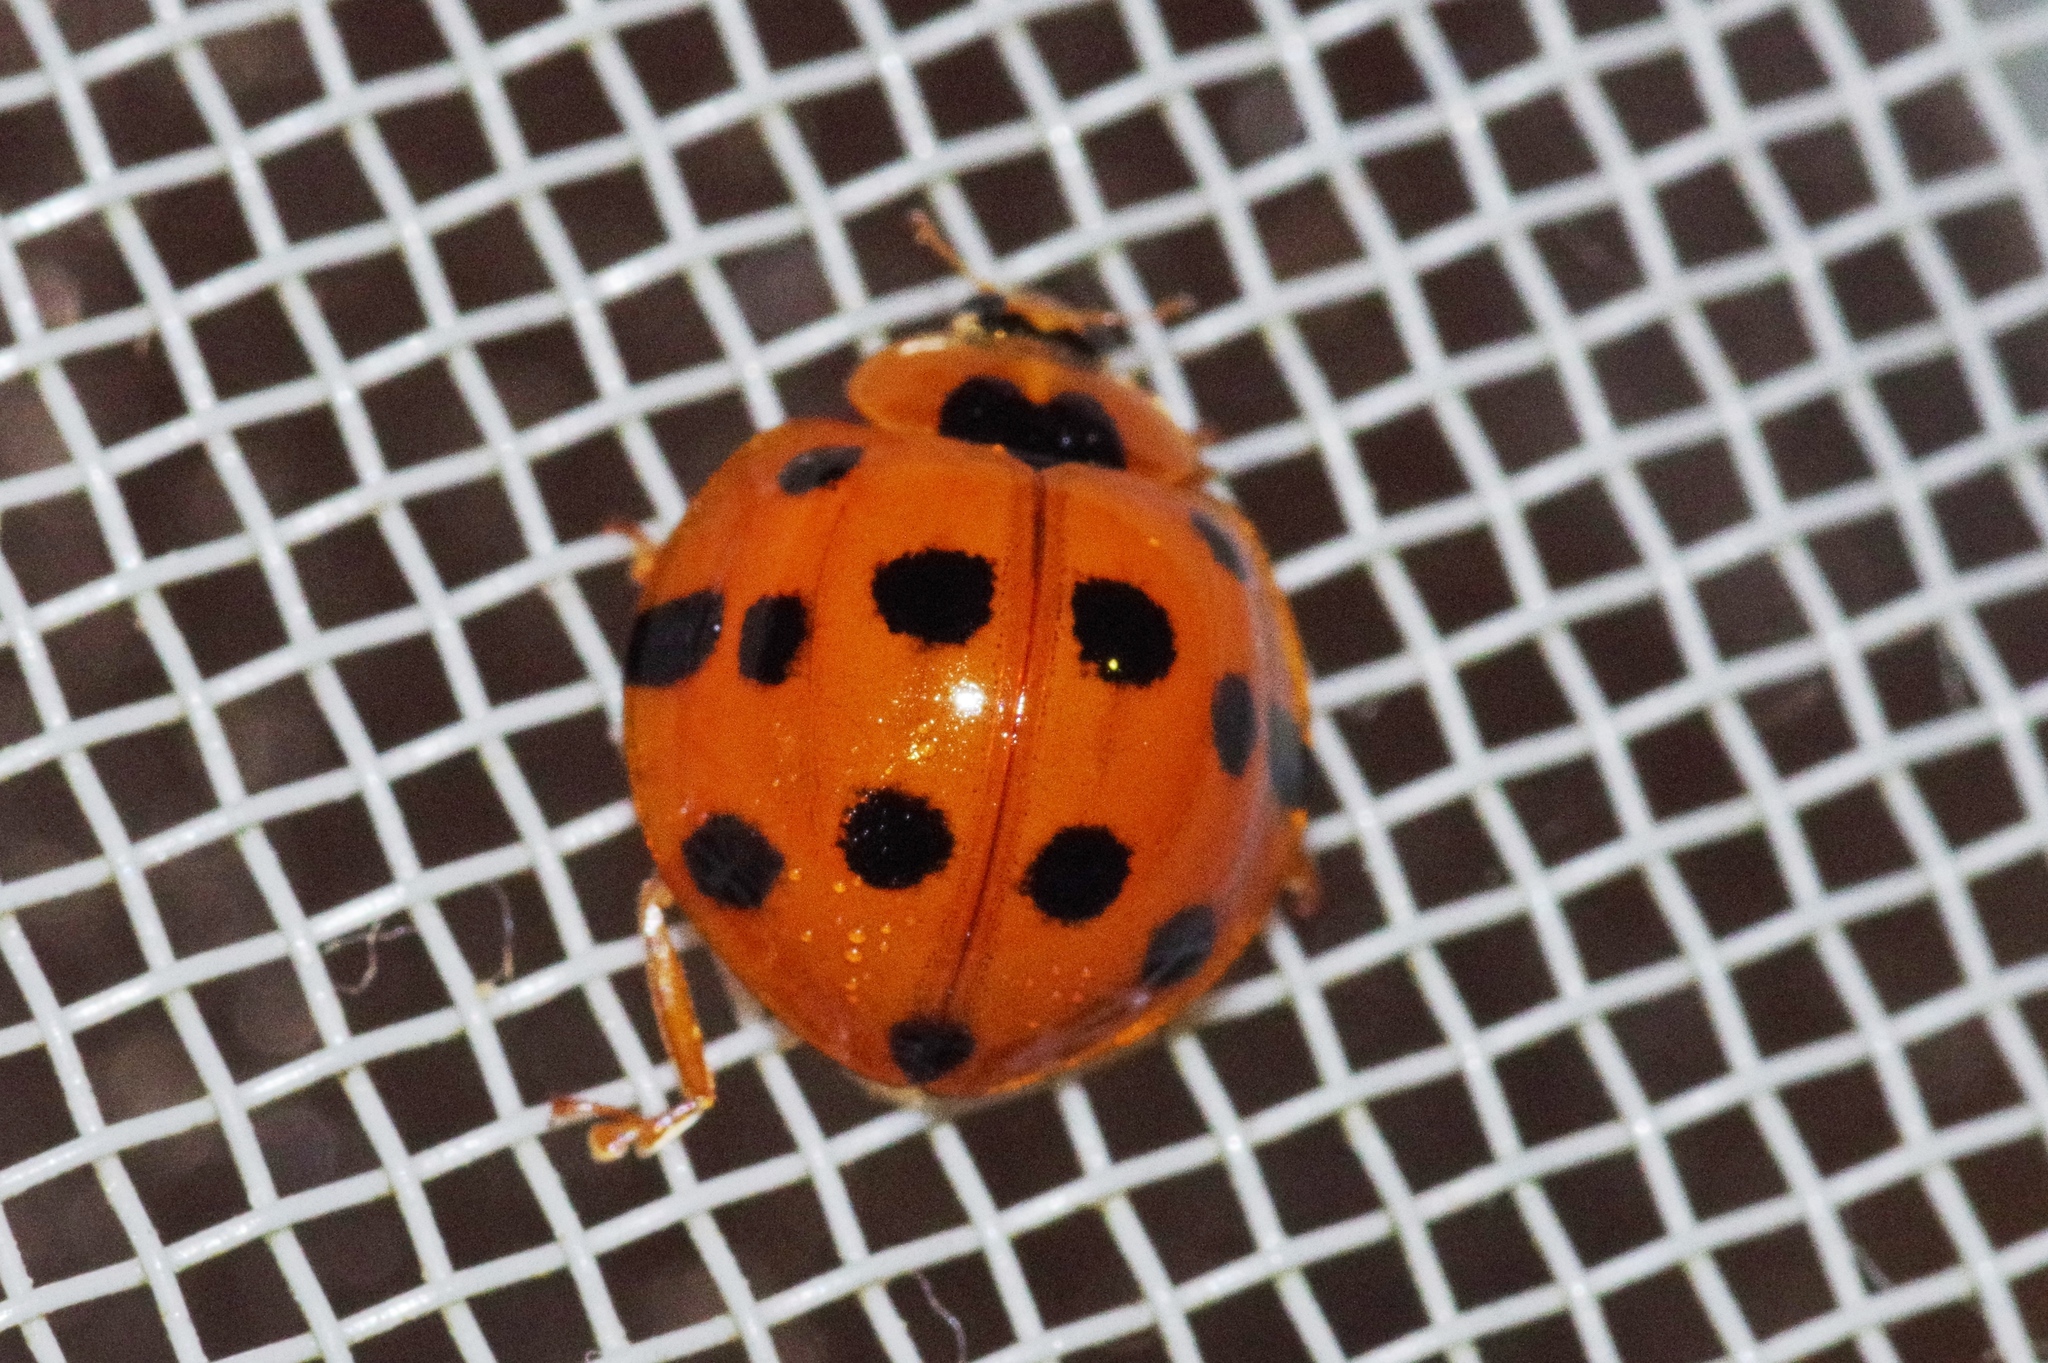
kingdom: Animalia
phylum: Arthropoda
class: Insecta
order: Coleoptera
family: Coccinellidae
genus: Harmonia
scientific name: Harmonia dimidiata
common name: Ladybird beetle
